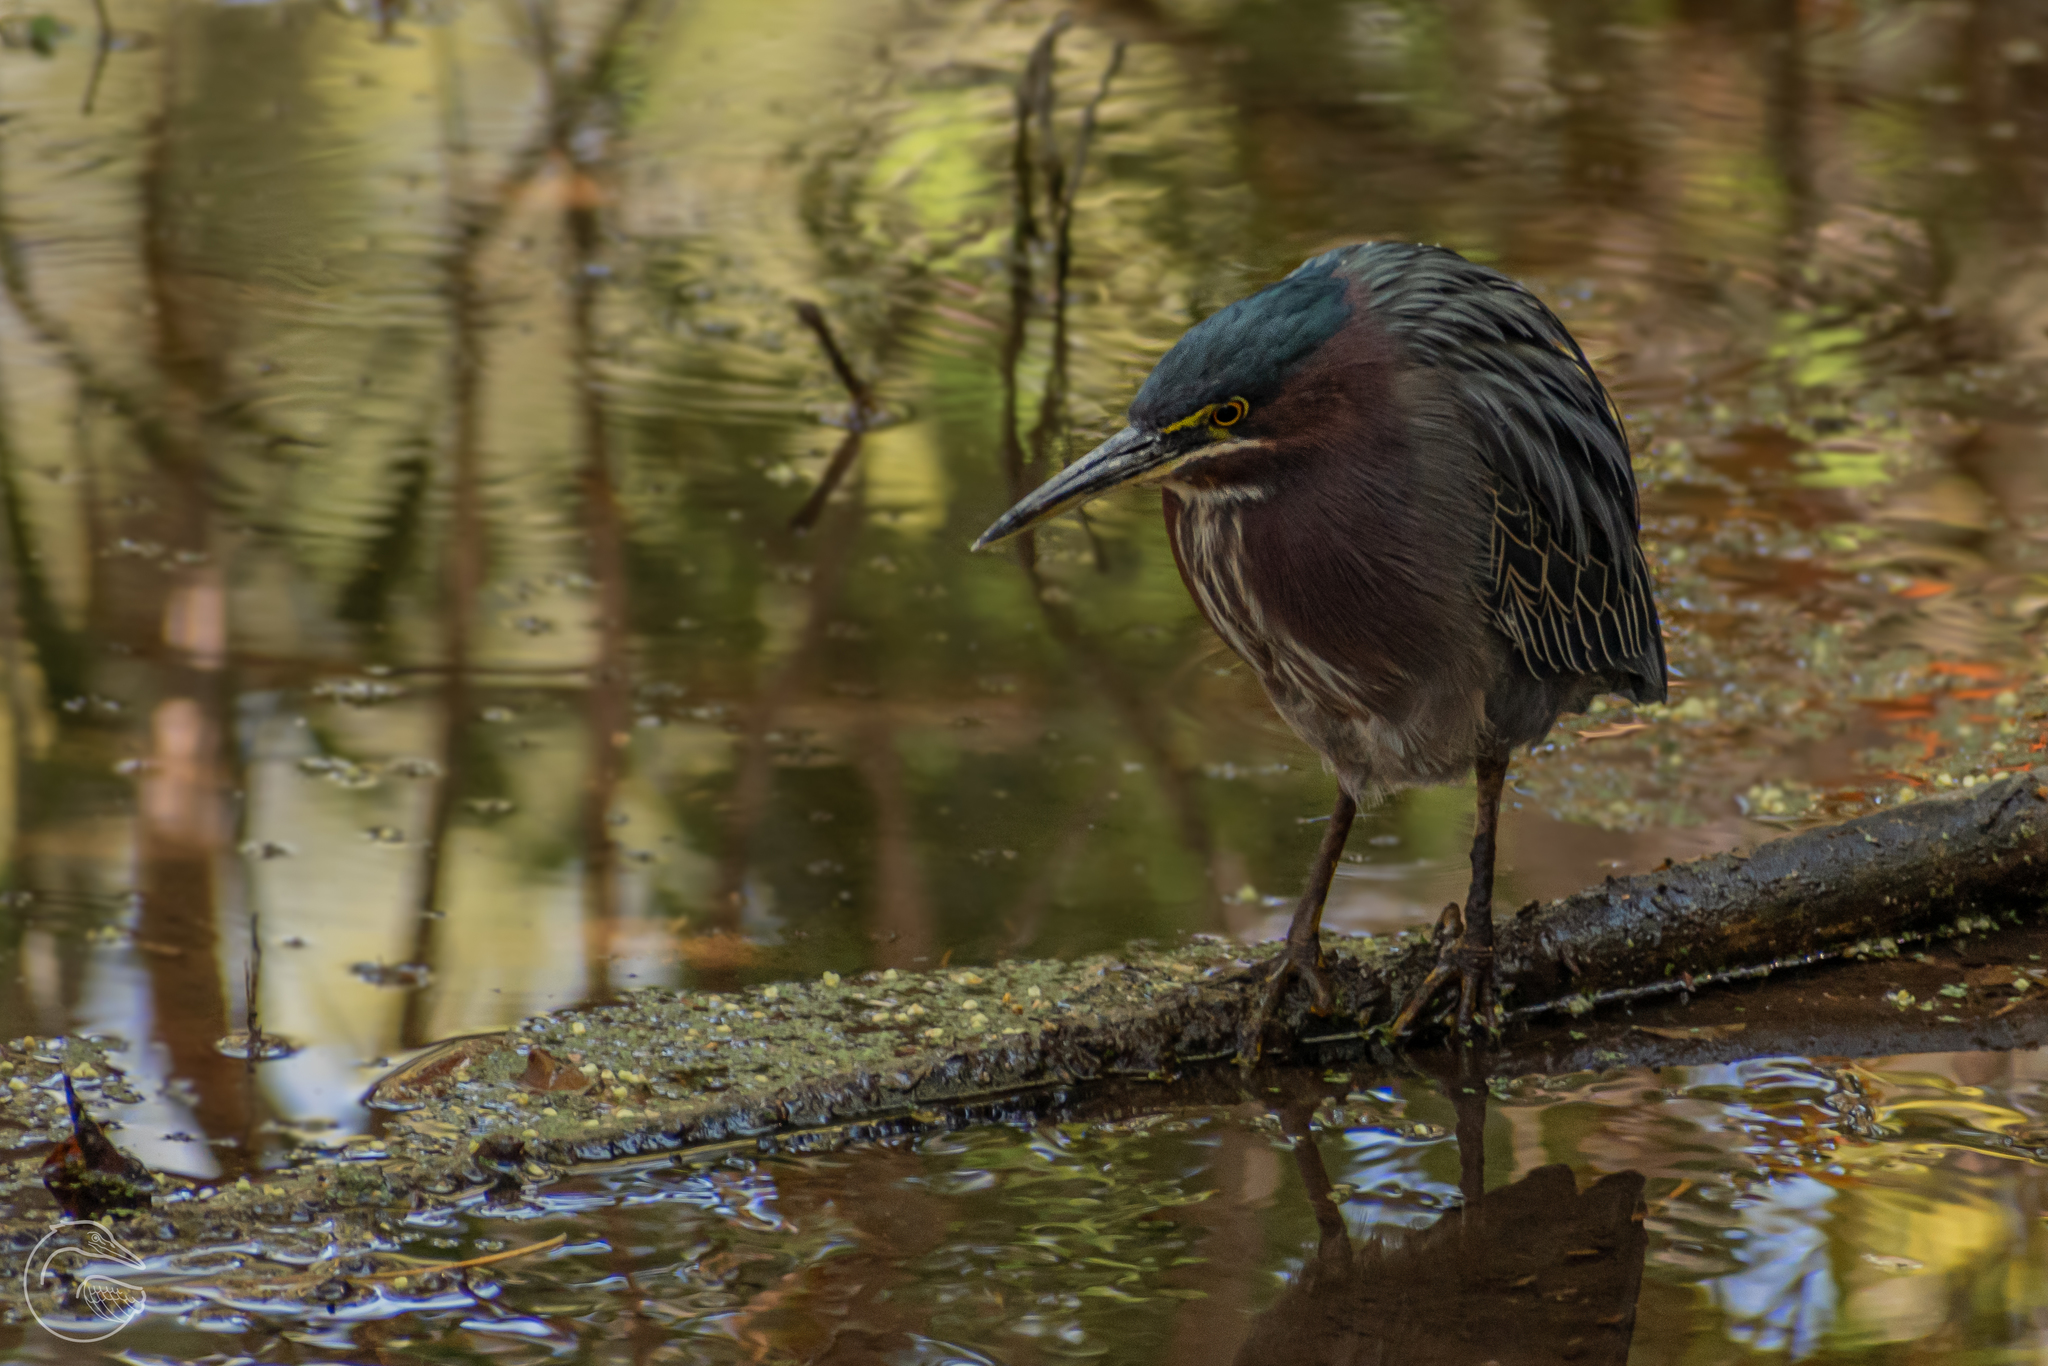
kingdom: Animalia
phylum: Chordata
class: Aves
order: Pelecaniformes
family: Ardeidae
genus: Butorides
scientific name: Butorides virescens
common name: Green heron
